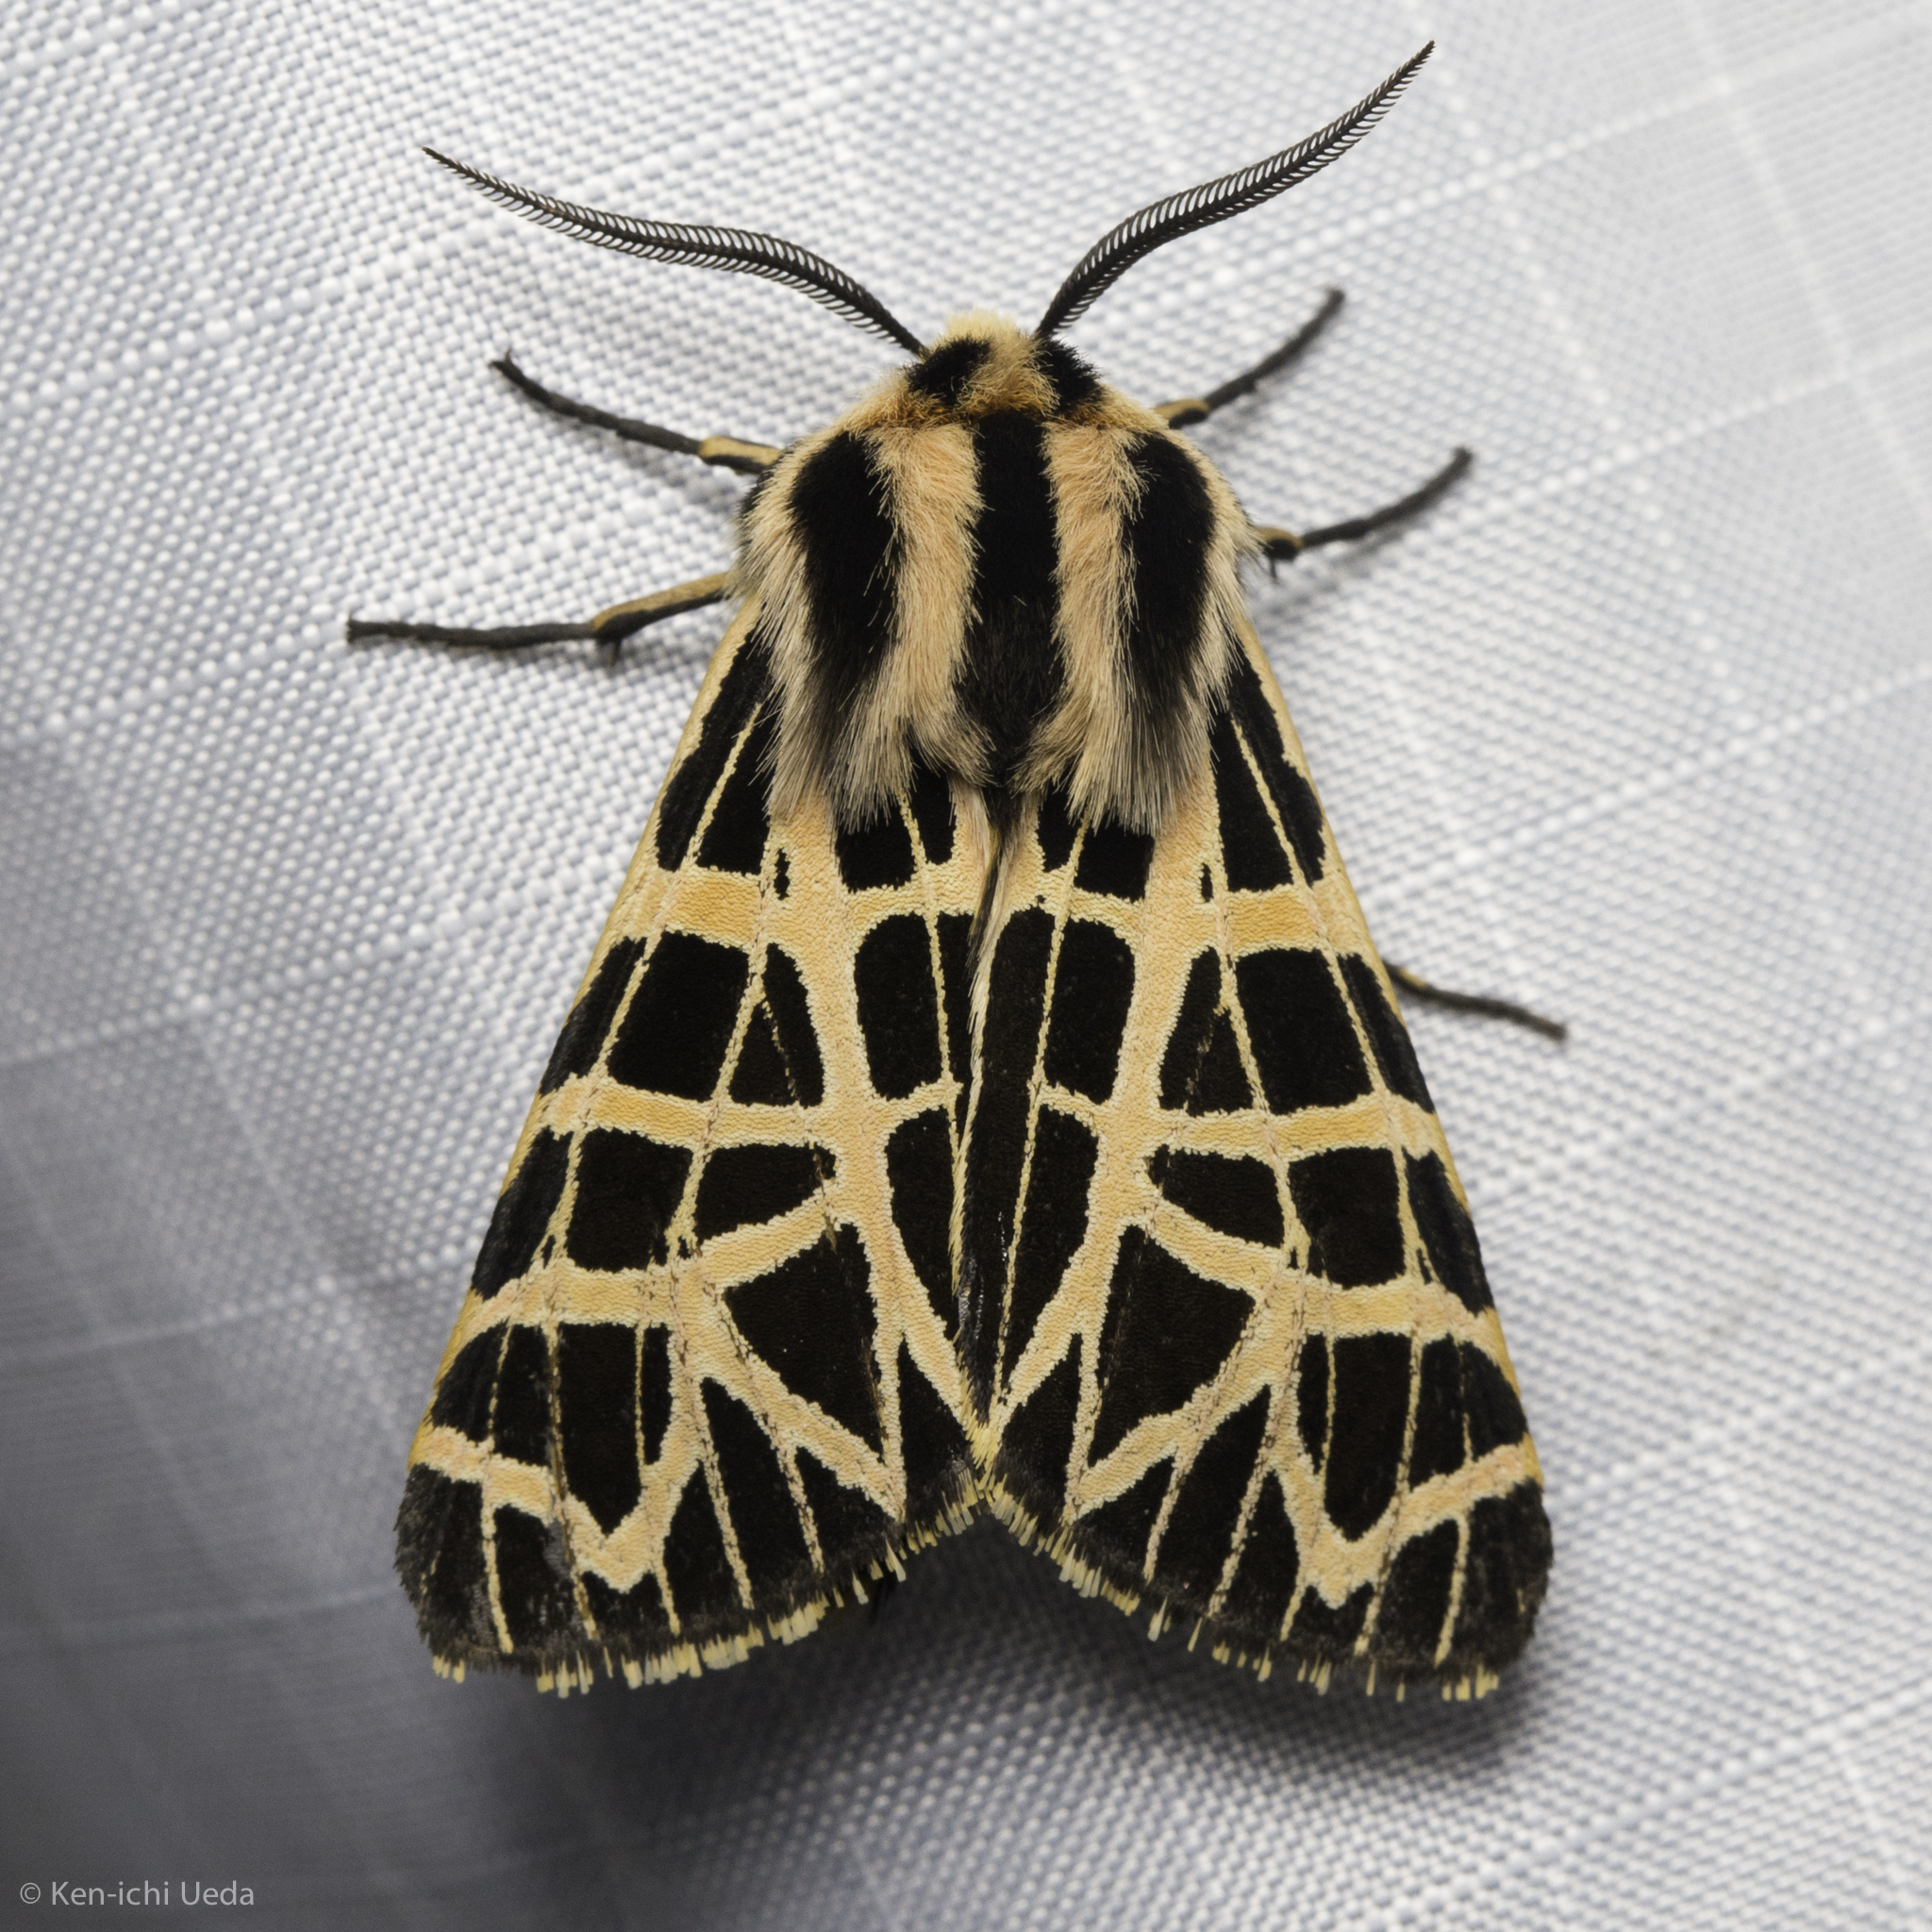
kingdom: Animalia
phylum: Arthropoda
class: Insecta
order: Lepidoptera
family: Erebidae
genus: Apantesis
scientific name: Apantesis
